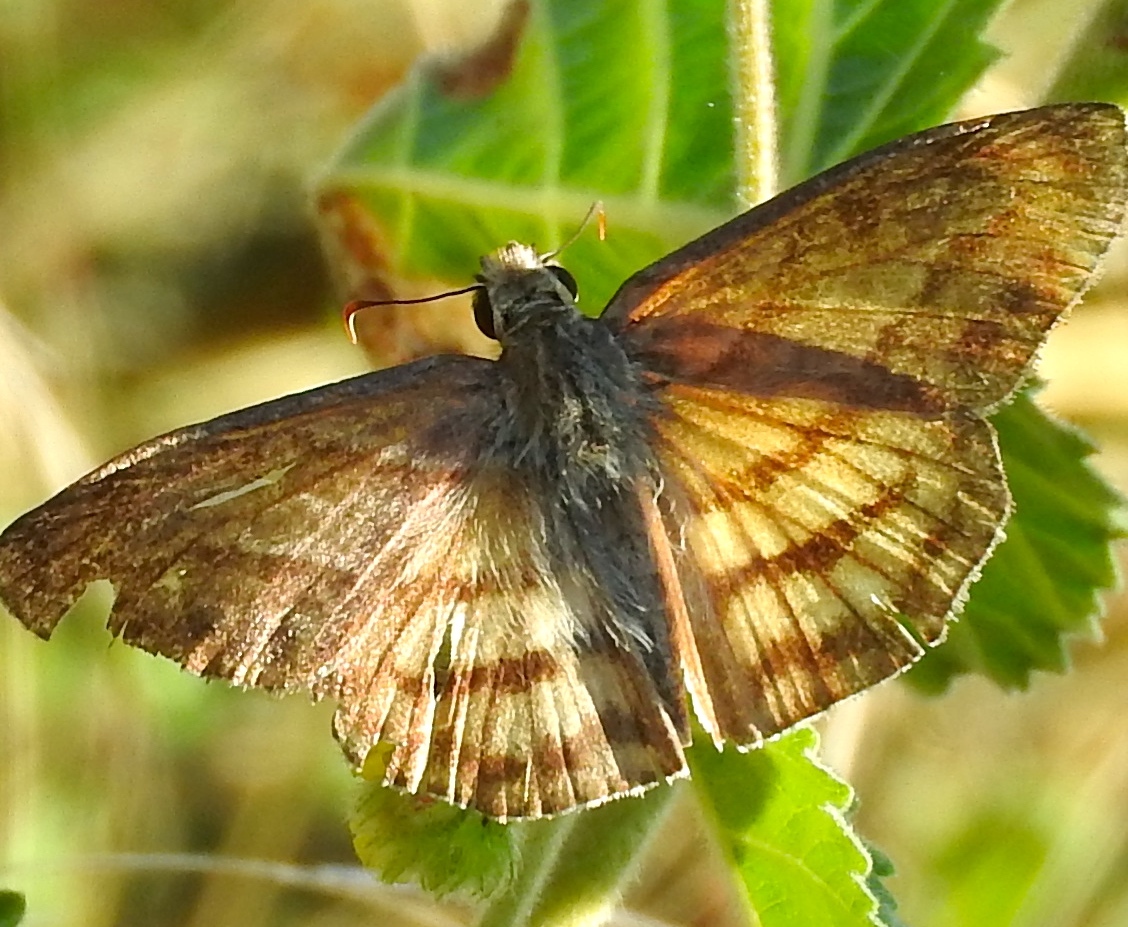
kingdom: Animalia
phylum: Arthropoda
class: Insecta
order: Lepidoptera
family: Hesperiidae
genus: Timochares
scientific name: Timochares trifasciata
